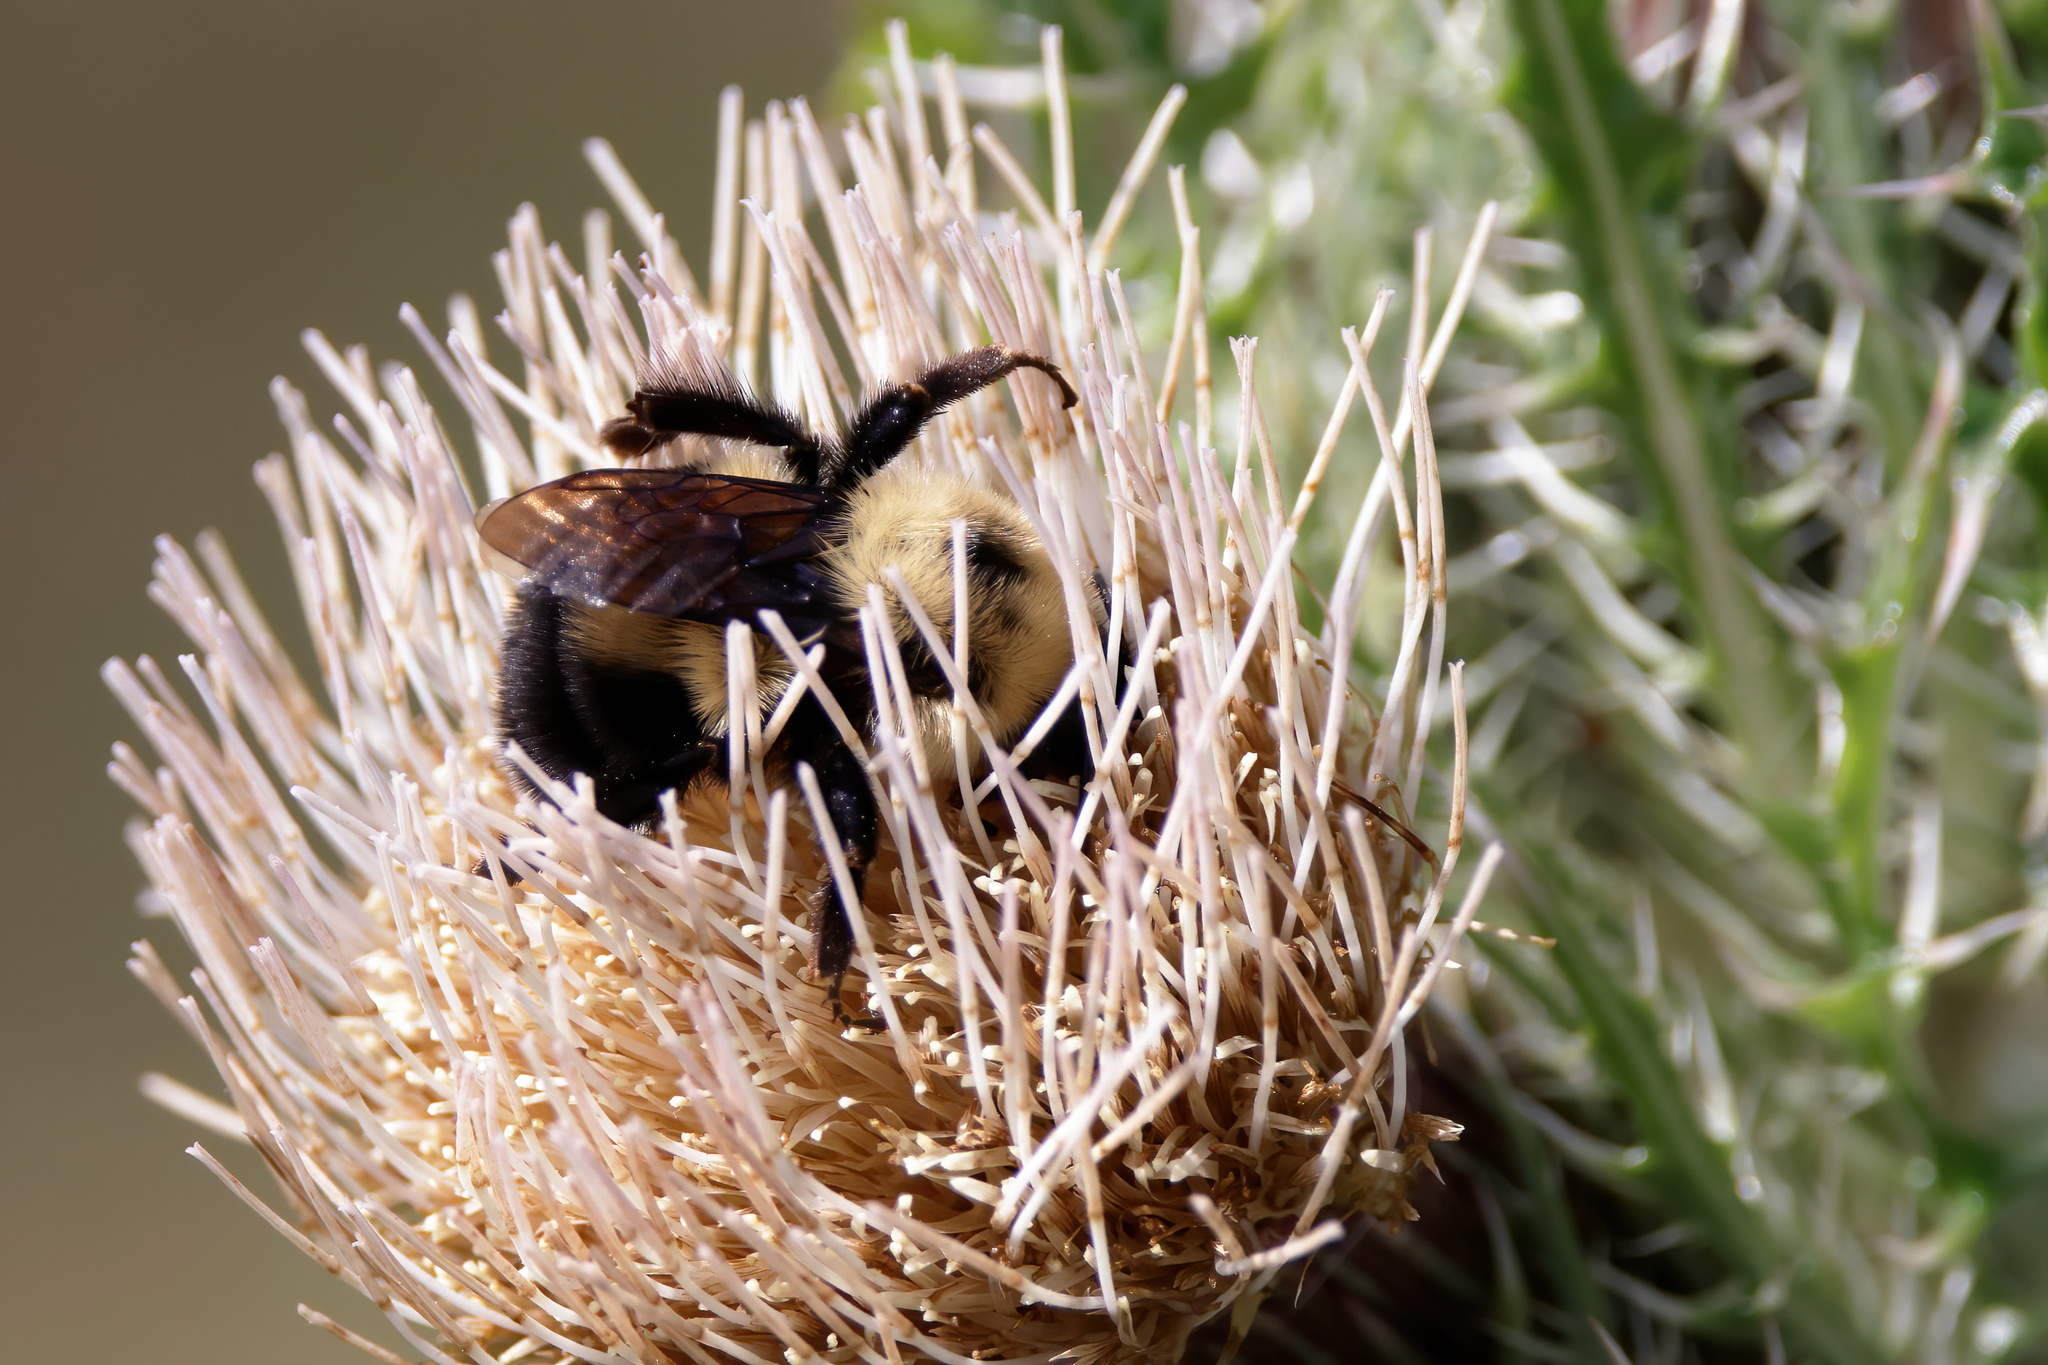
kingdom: Animalia
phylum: Arthropoda
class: Insecta
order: Hymenoptera
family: Apidae
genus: Bombus
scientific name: Bombus bimaculatus
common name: Two-spotted bumble bee
